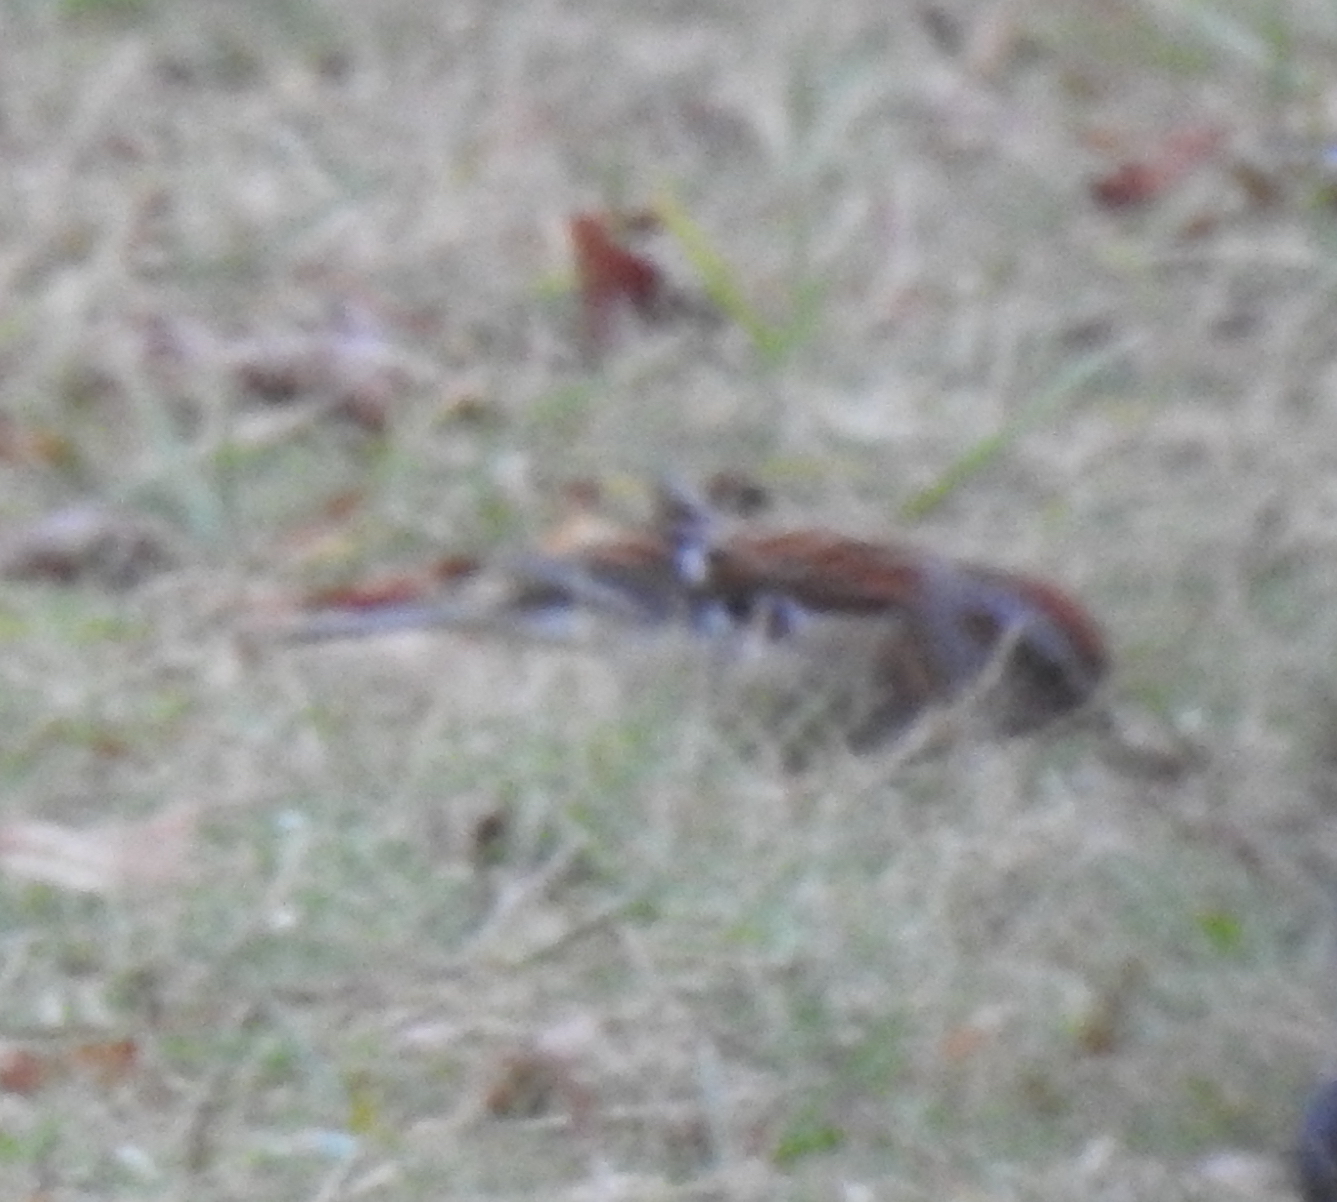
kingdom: Animalia
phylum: Chordata
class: Aves
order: Passeriformes
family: Passerellidae
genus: Spizelloides
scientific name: Spizelloides arborea
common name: American tree sparrow
